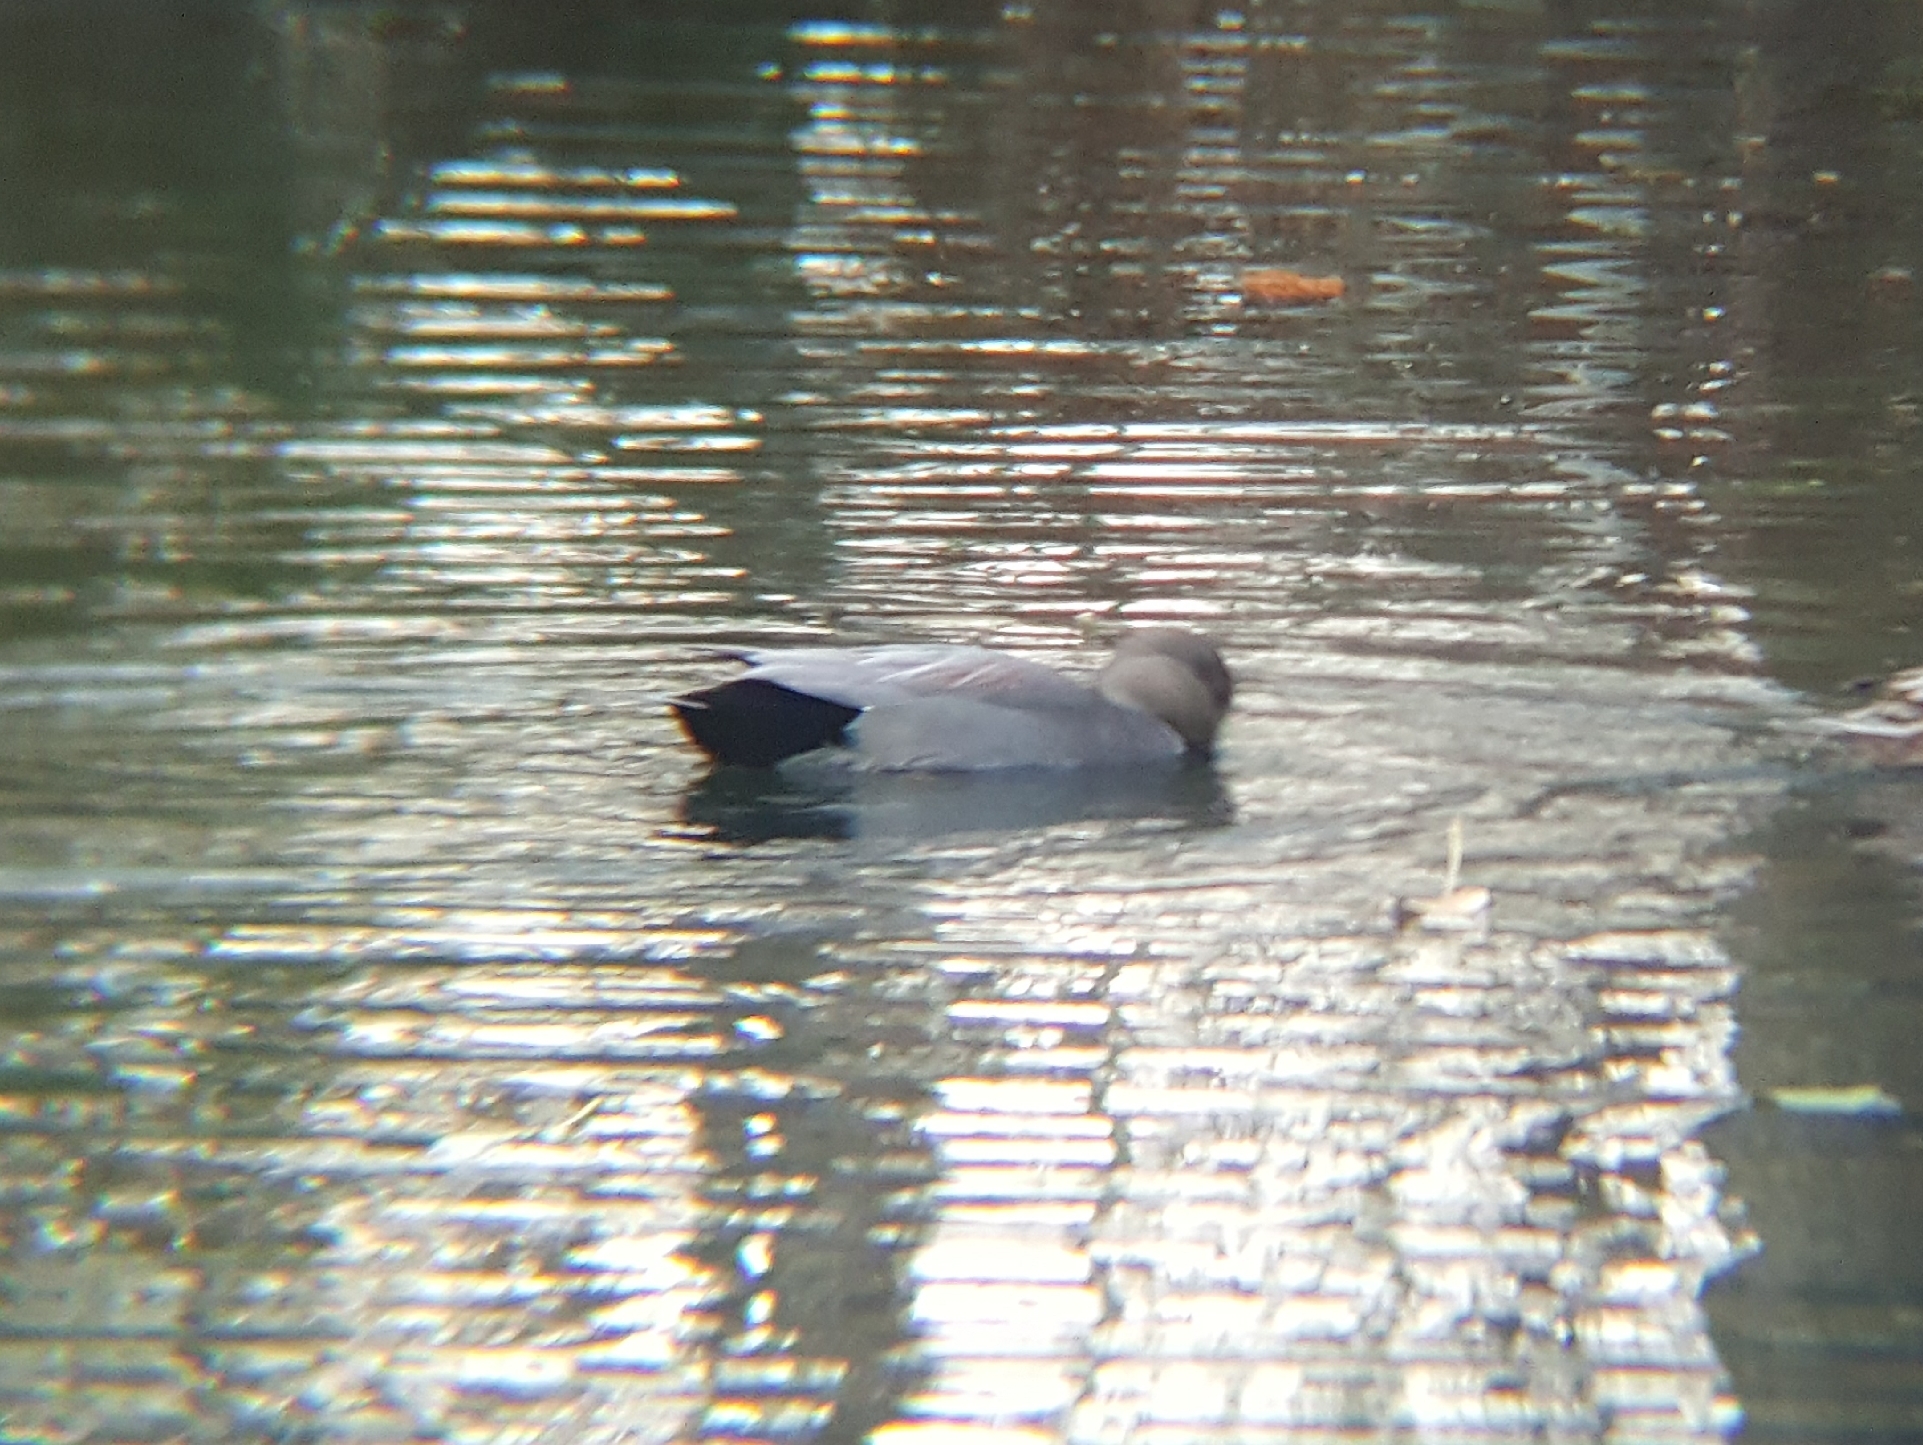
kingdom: Animalia
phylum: Chordata
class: Aves
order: Anseriformes
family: Anatidae
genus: Mareca
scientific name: Mareca strepera
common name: Gadwall
